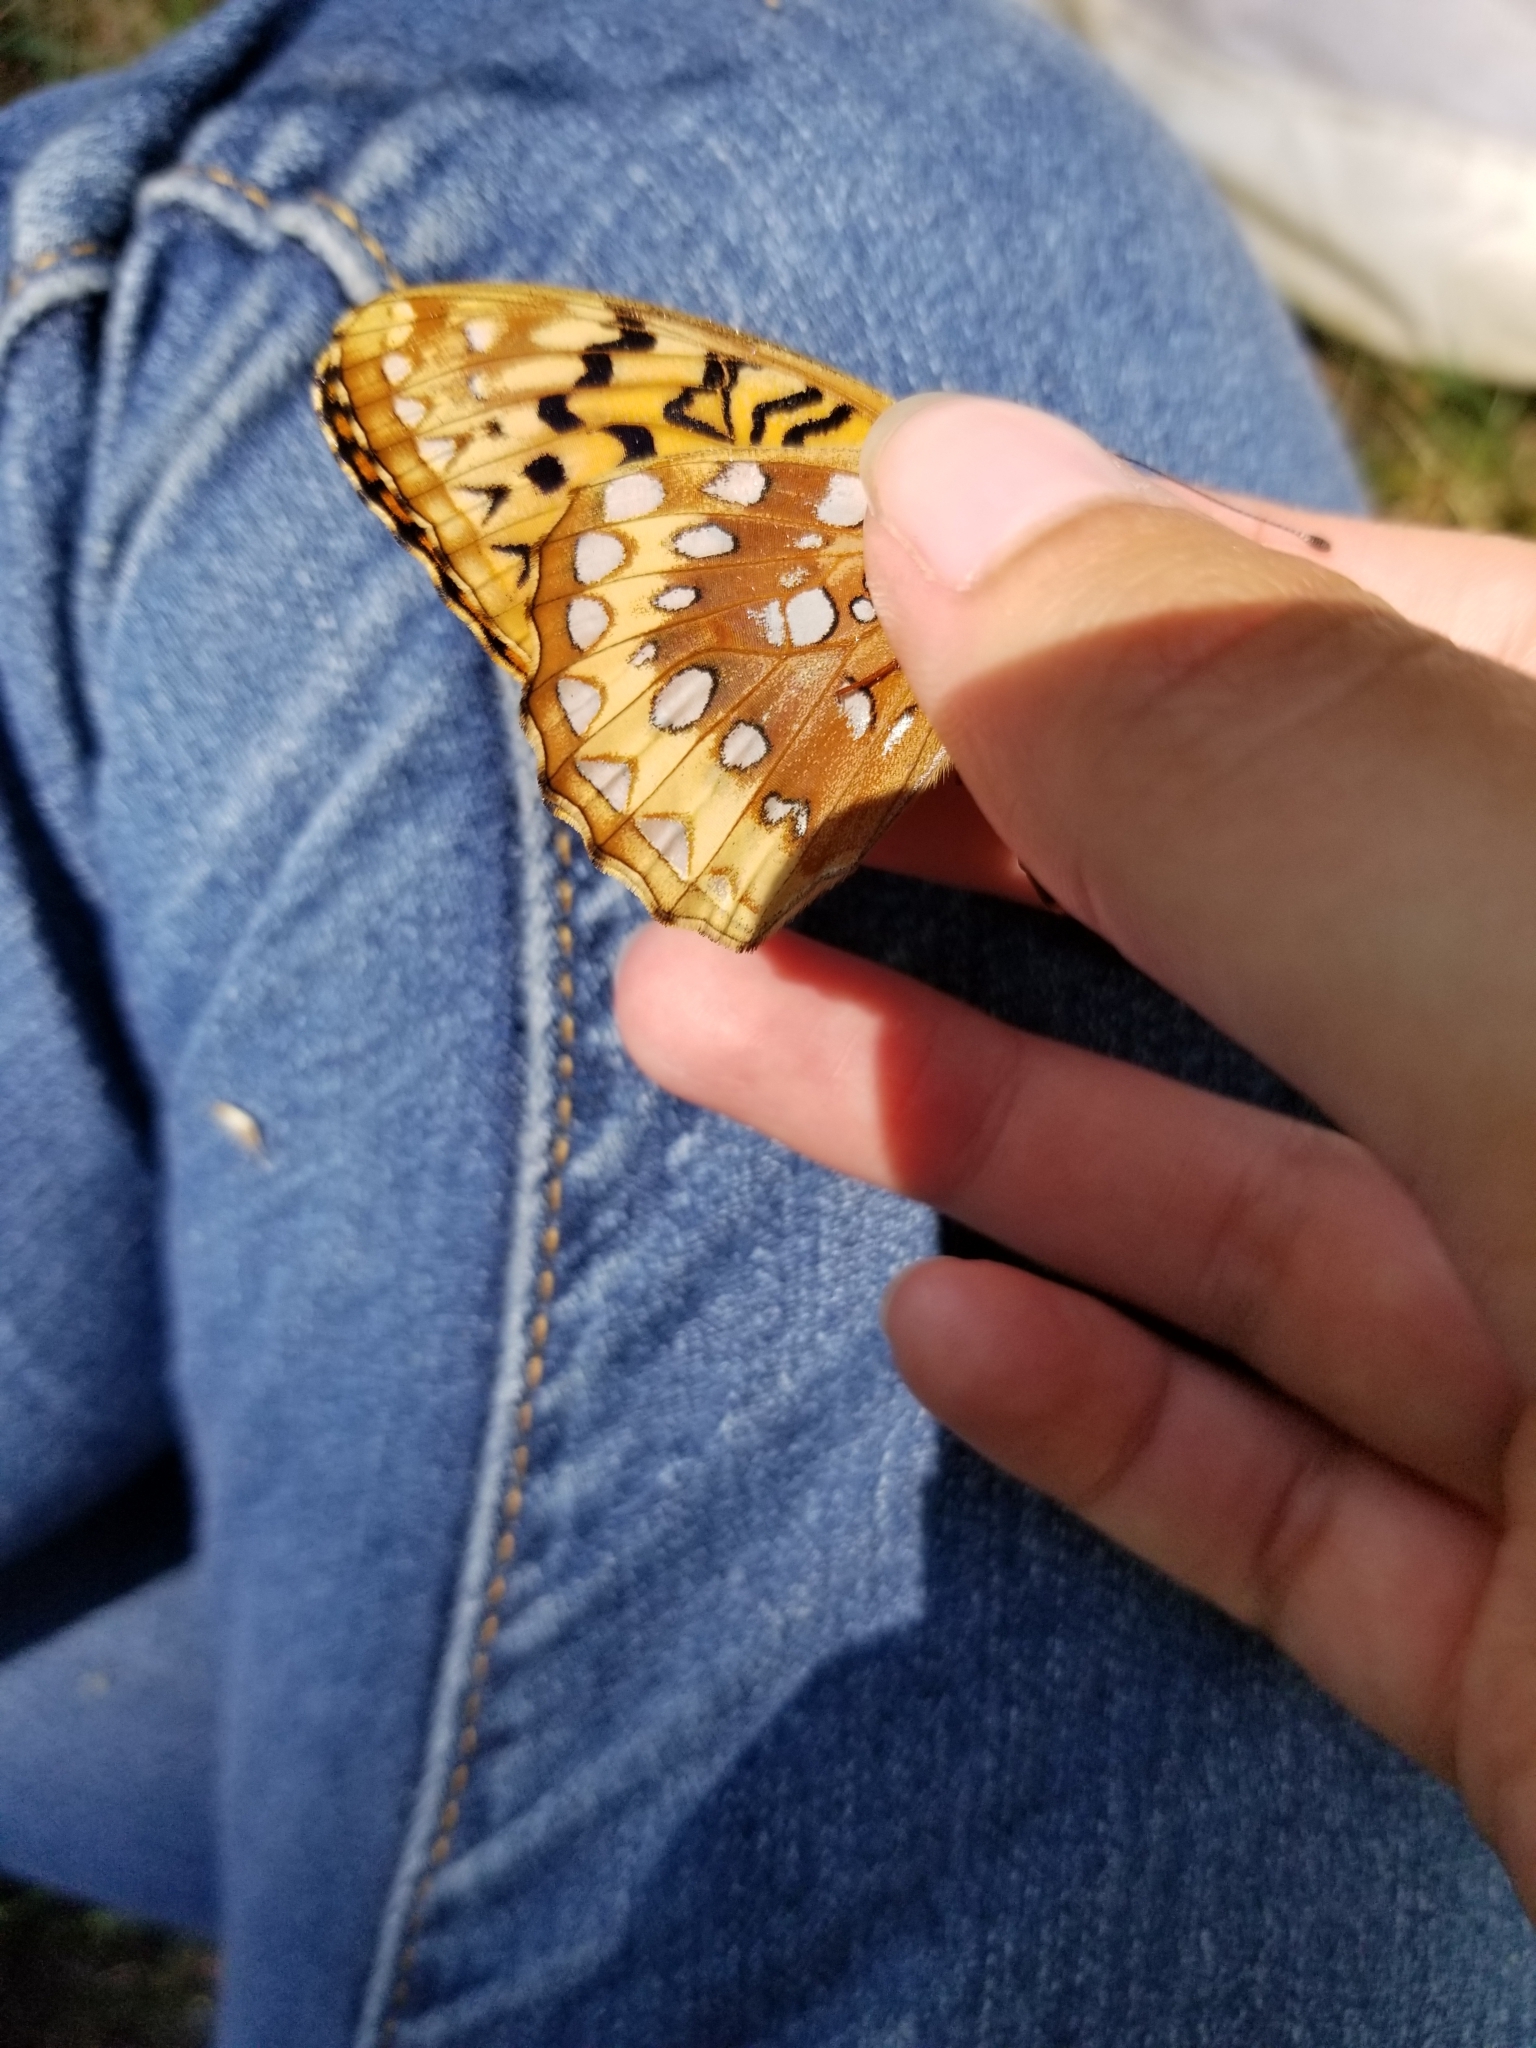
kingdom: Animalia
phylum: Arthropoda
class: Insecta
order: Lepidoptera
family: Nymphalidae
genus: Speyeria
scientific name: Speyeria cybele
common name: Great spangled fritillary
